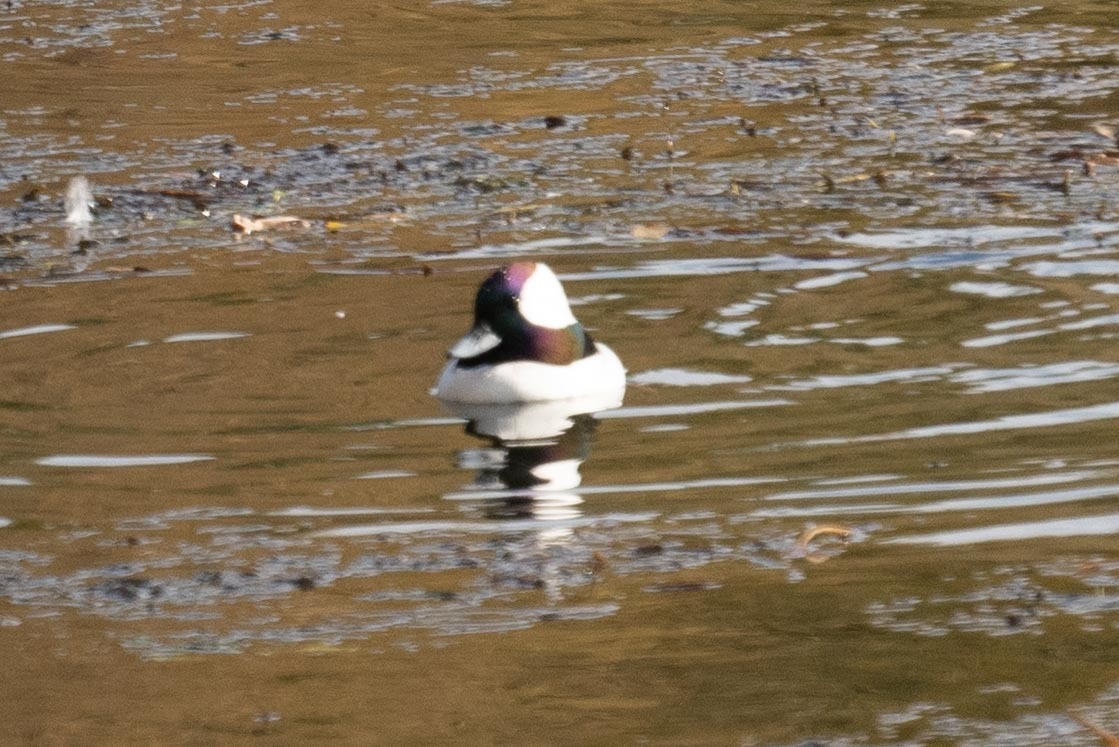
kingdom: Animalia
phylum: Chordata
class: Aves
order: Anseriformes
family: Anatidae
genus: Bucephala
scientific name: Bucephala albeola
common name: Bufflehead
